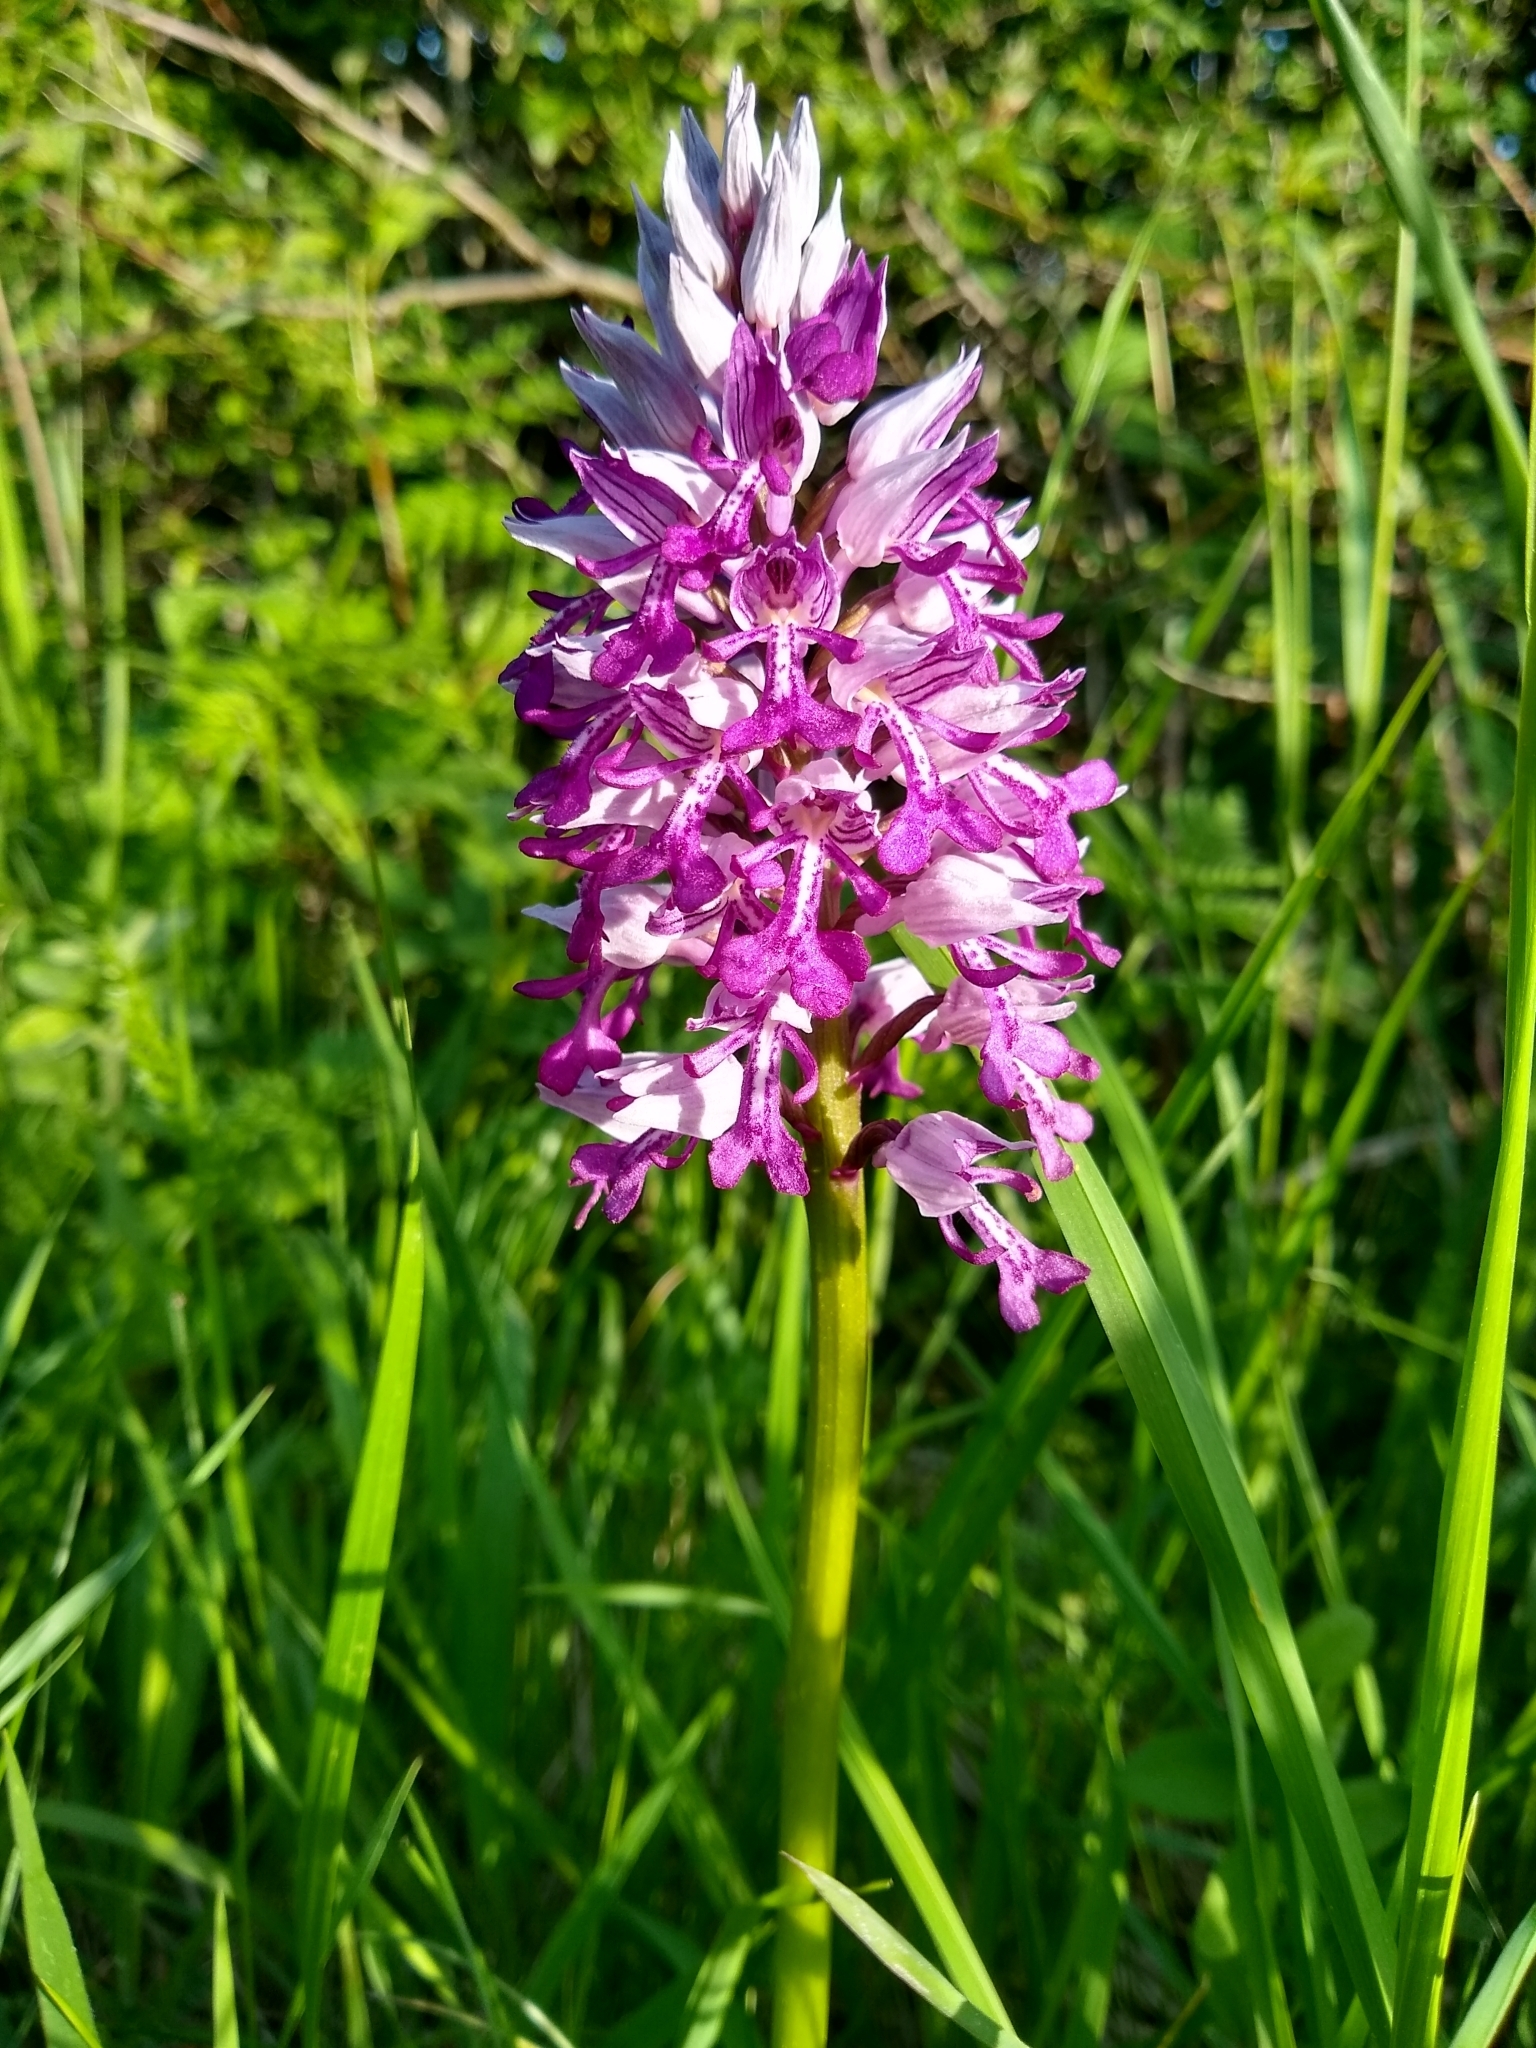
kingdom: Plantae
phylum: Tracheophyta
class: Liliopsida
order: Asparagales
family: Orchidaceae
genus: Orchis
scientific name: Orchis militaris
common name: Military orchid
